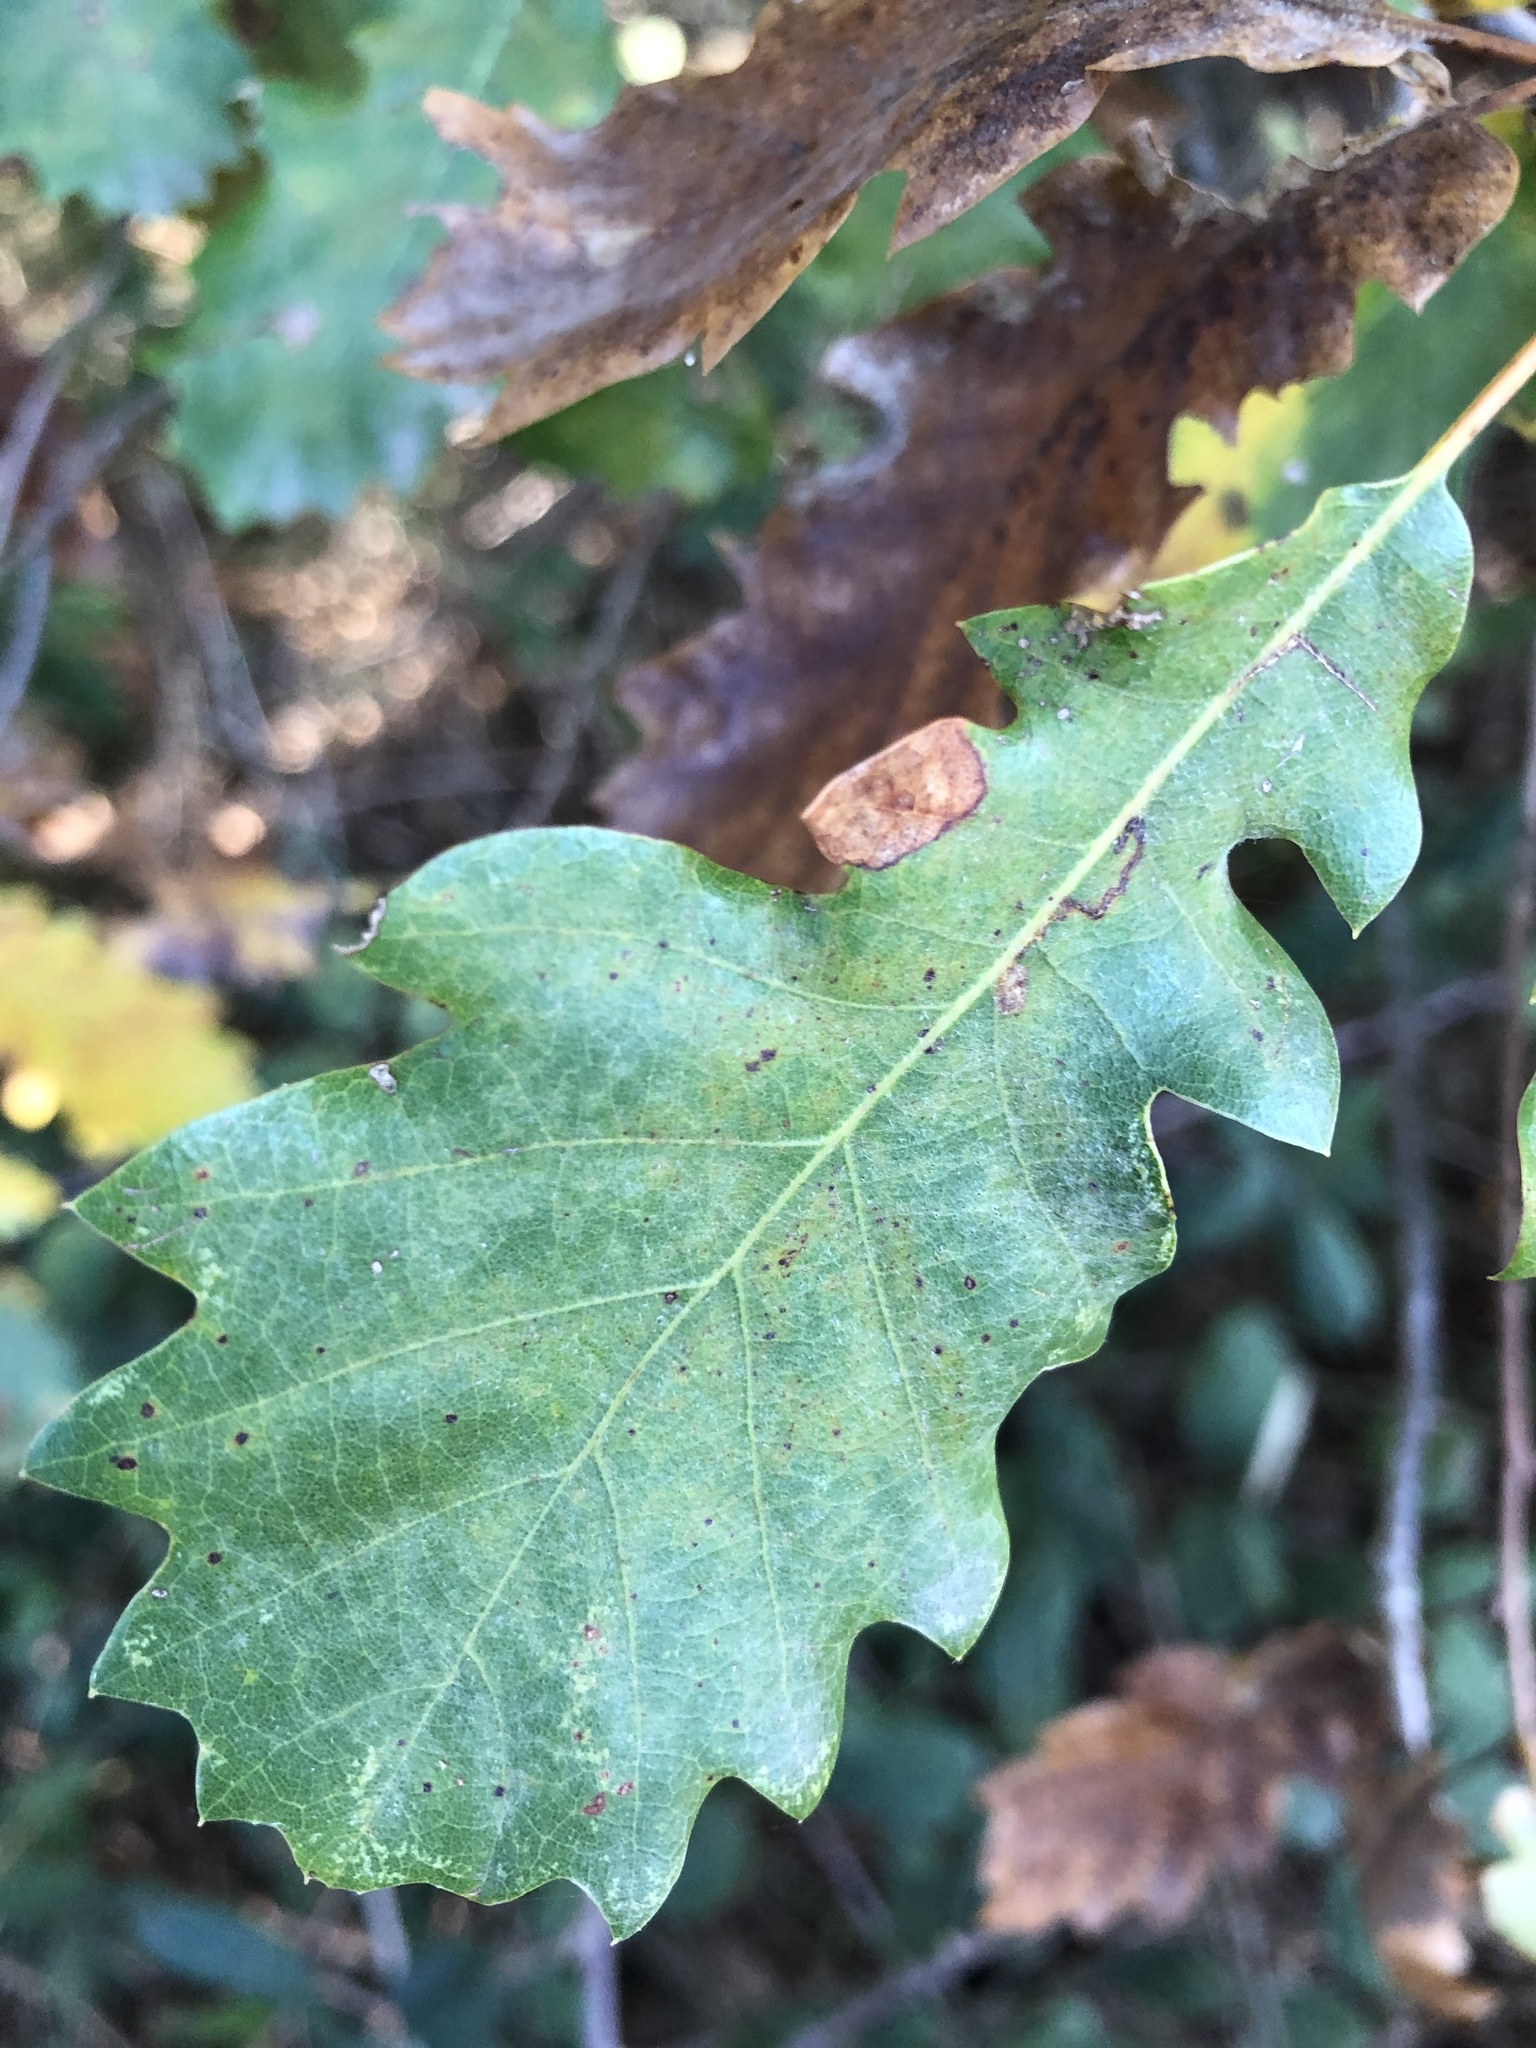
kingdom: Plantae
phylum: Tracheophyta
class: Magnoliopsida
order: Fagales
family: Fagaceae
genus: Quercus
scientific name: Quercus cerrioides
